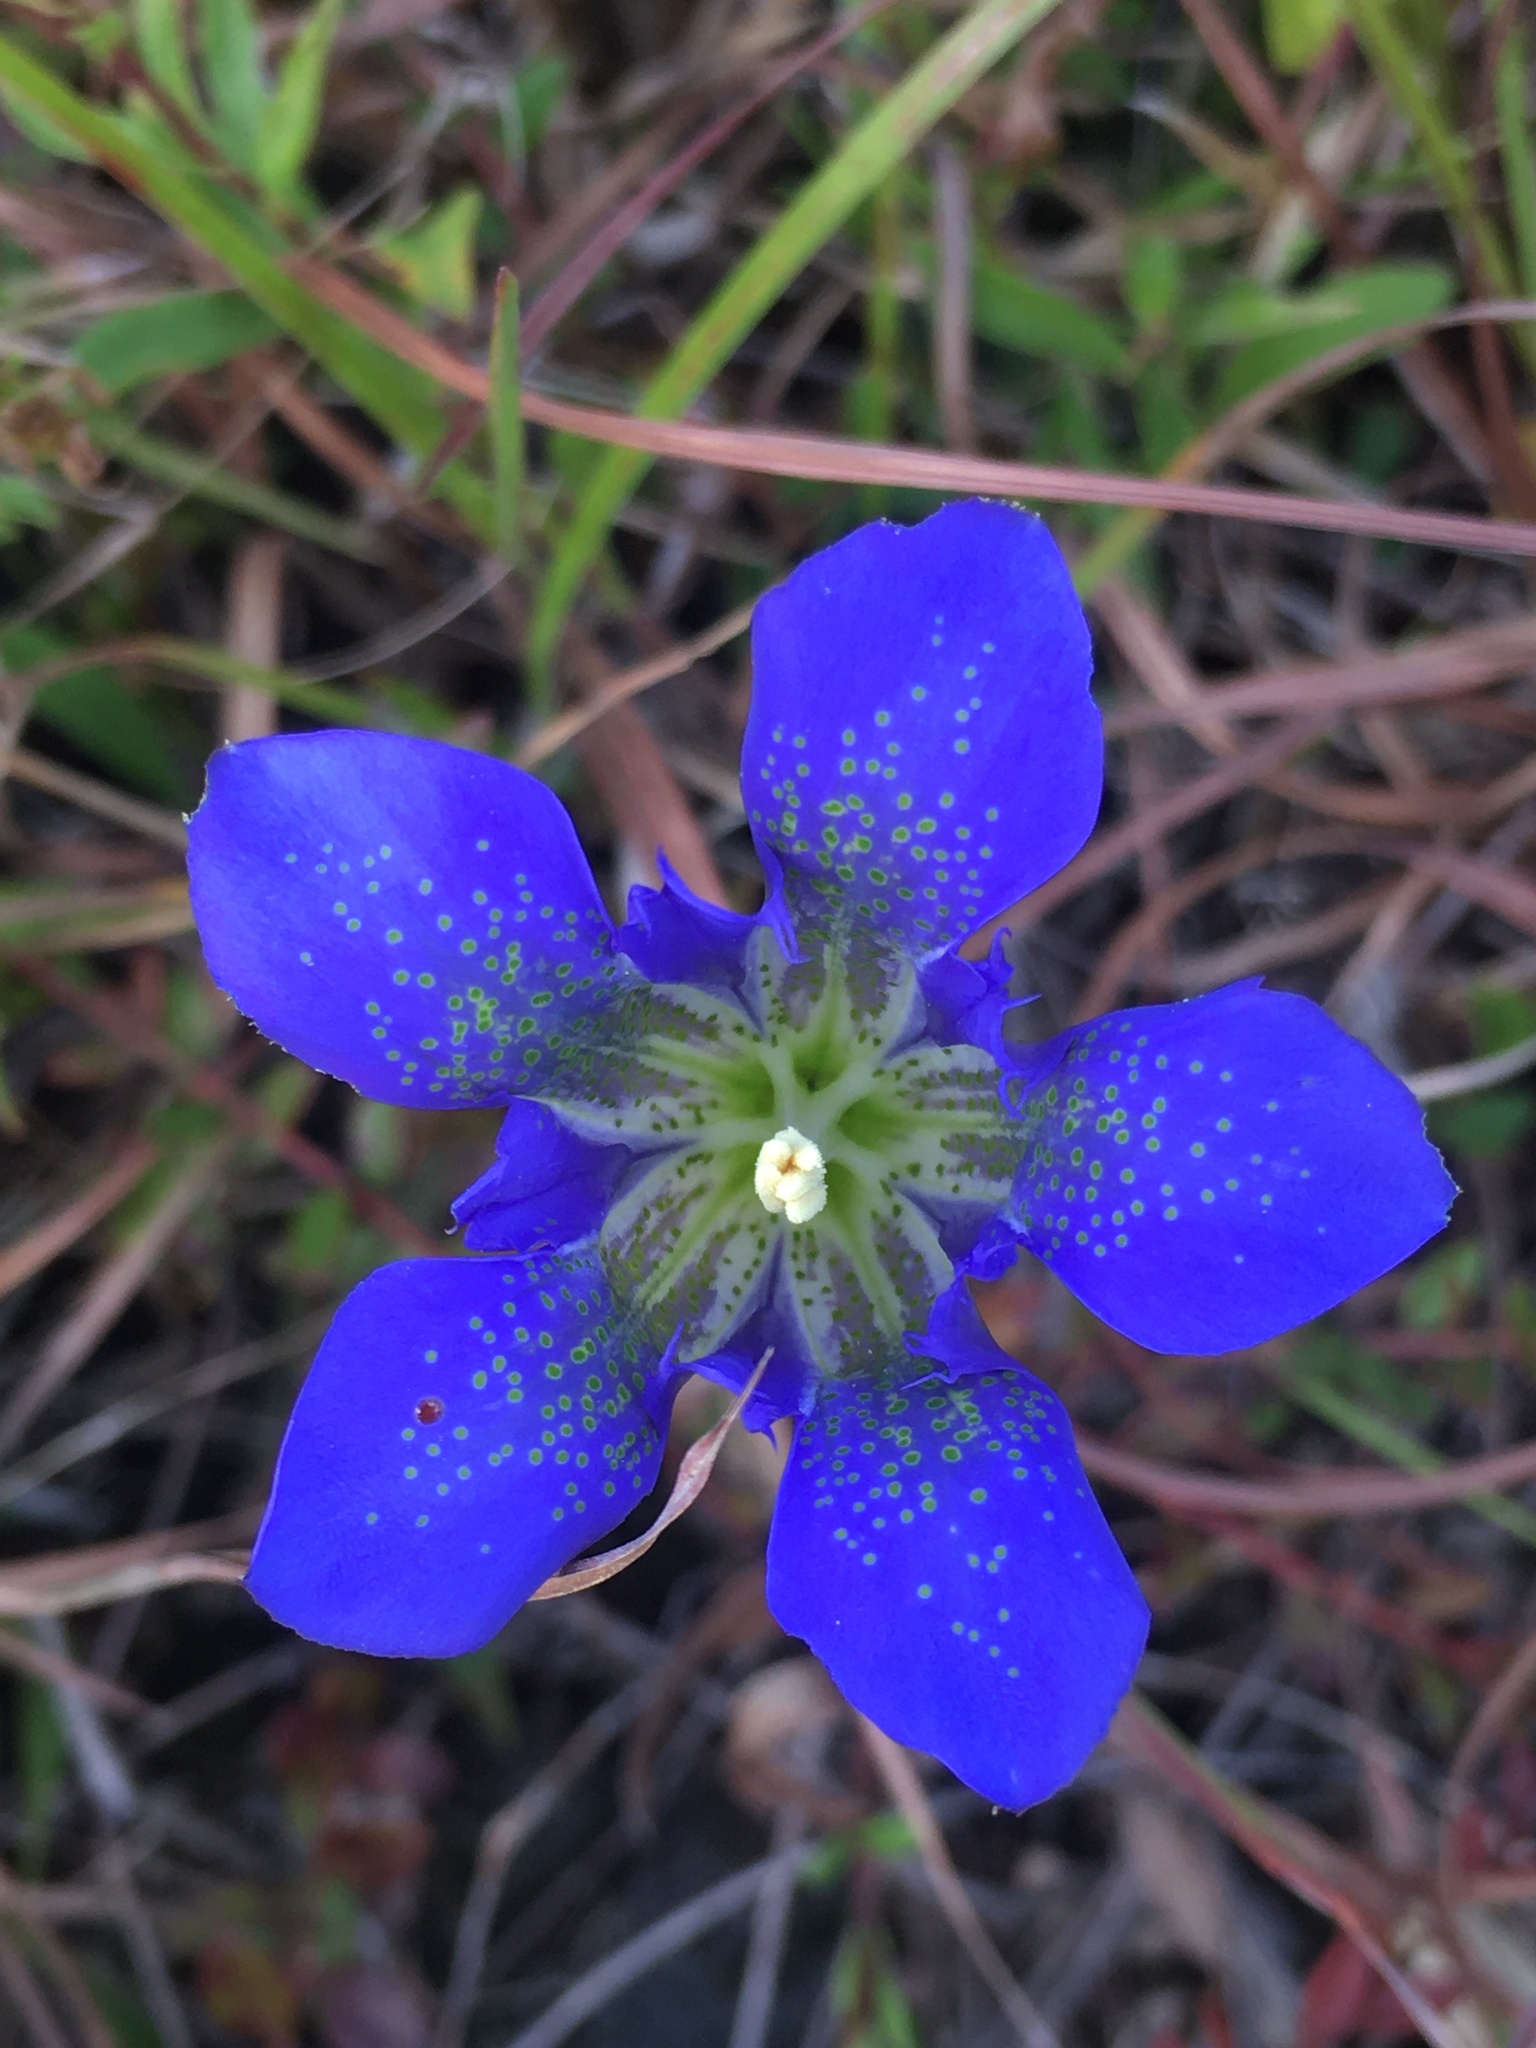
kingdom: Plantae
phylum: Tracheophyta
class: Magnoliopsida
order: Gentianales
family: Gentianaceae
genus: Gentiana
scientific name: Gentiana autumnalis
